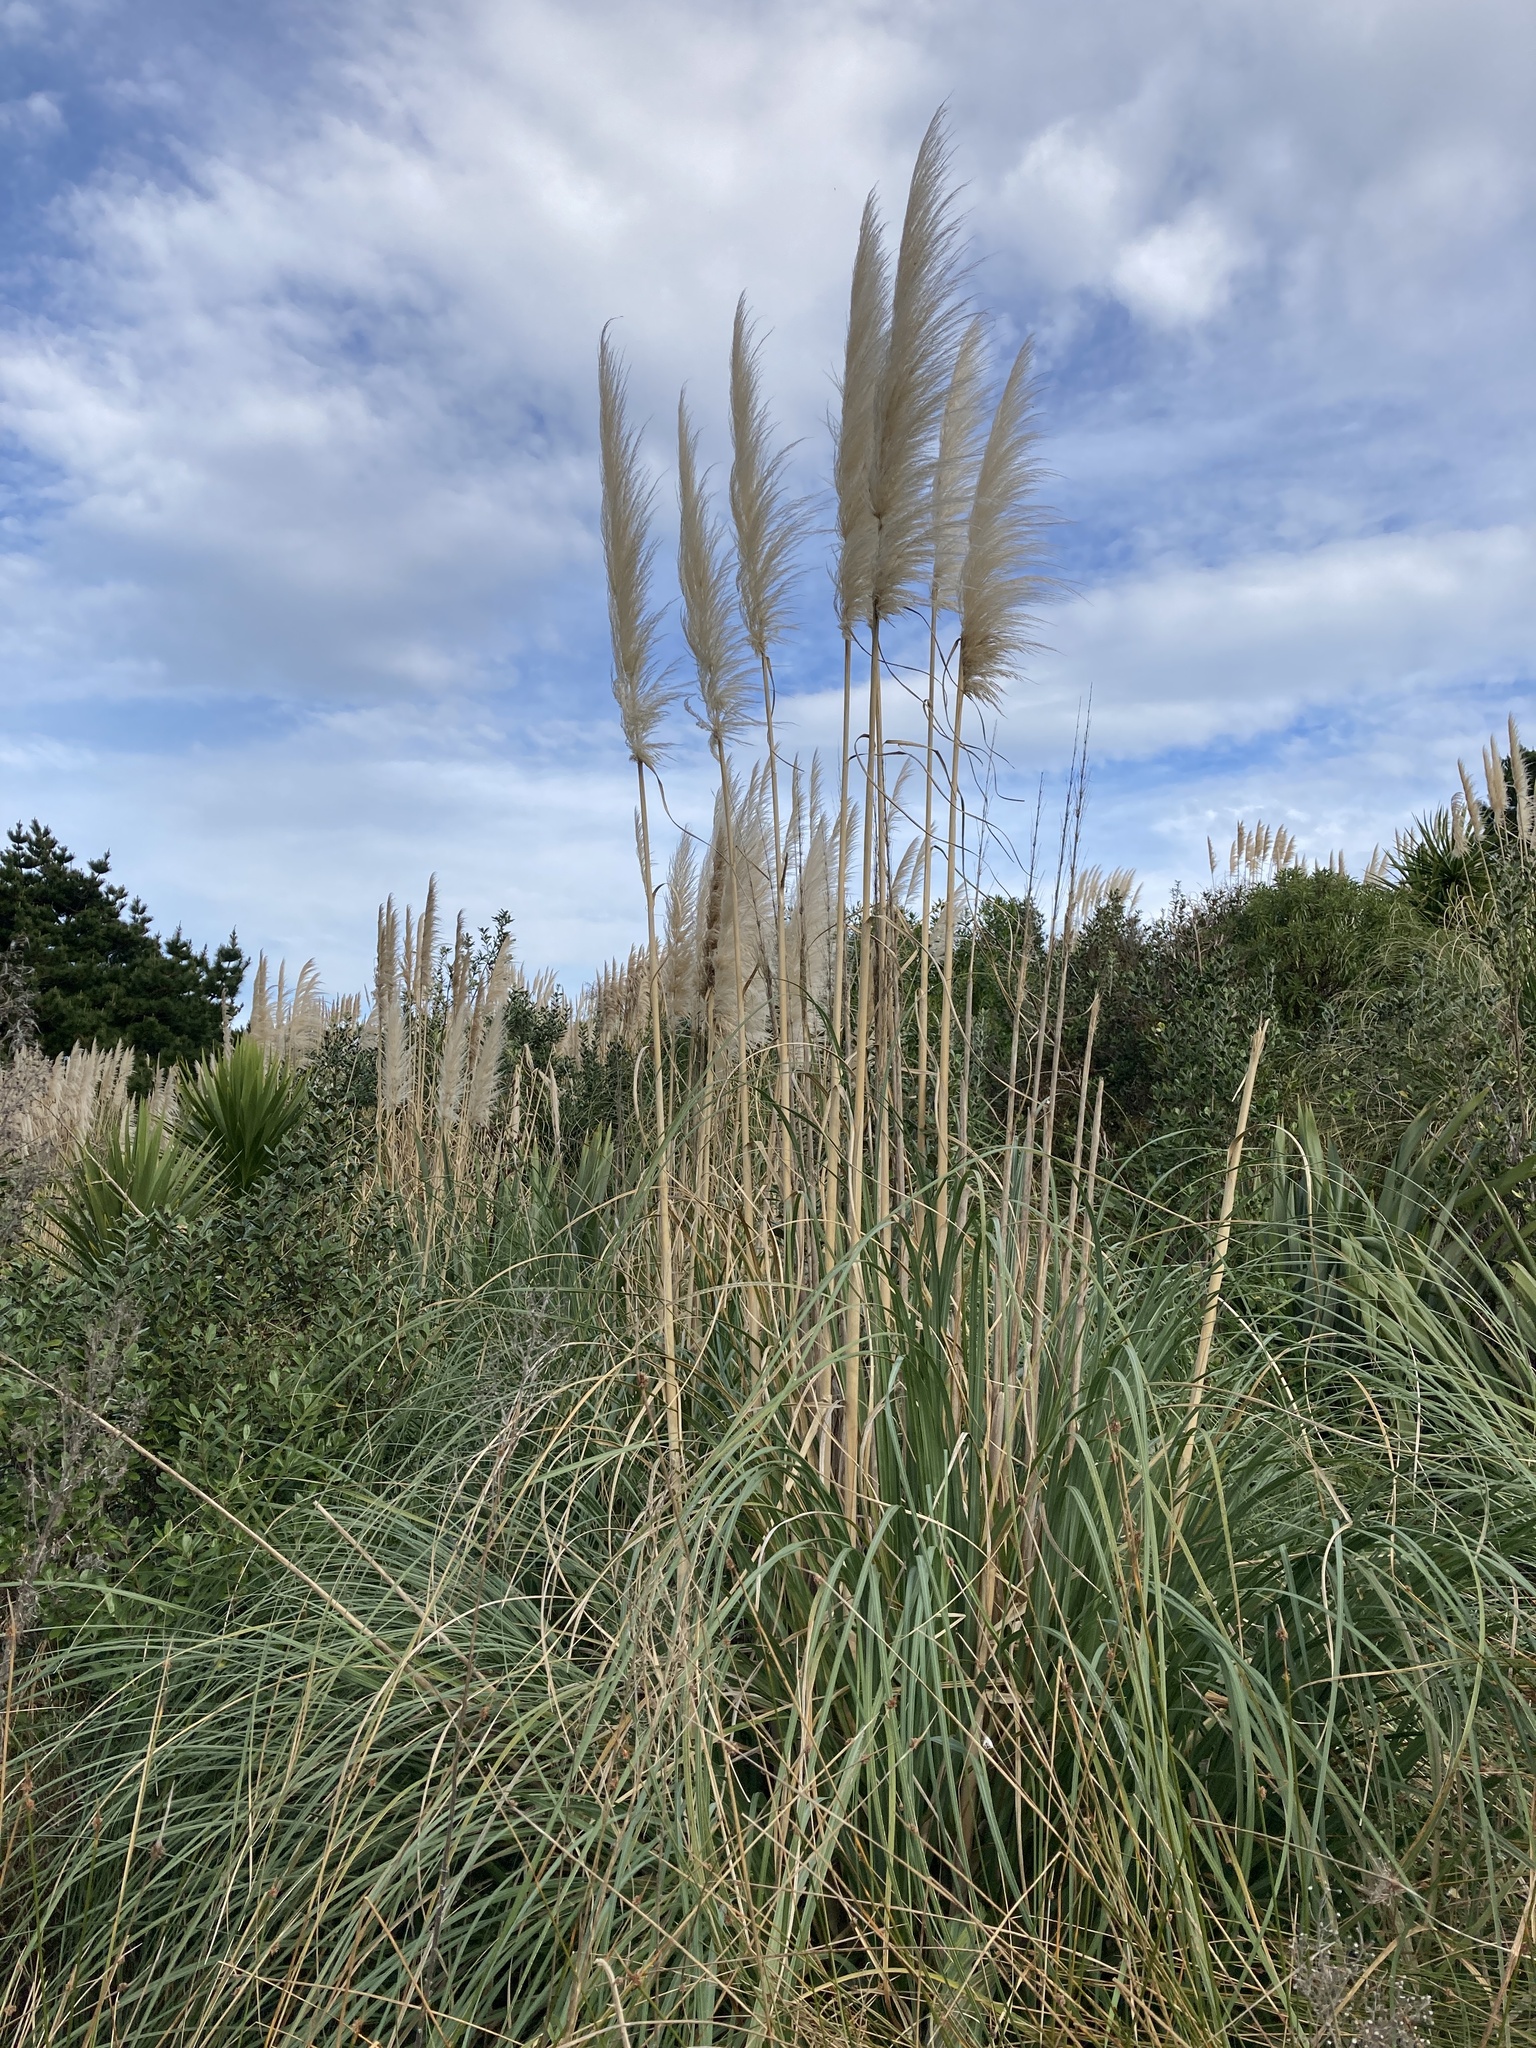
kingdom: Plantae
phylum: Tracheophyta
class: Liliopsida
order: Poales
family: Poaceae
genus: Cortaderia
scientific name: Cortaderia selloana
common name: Uruguayan pampas grass
